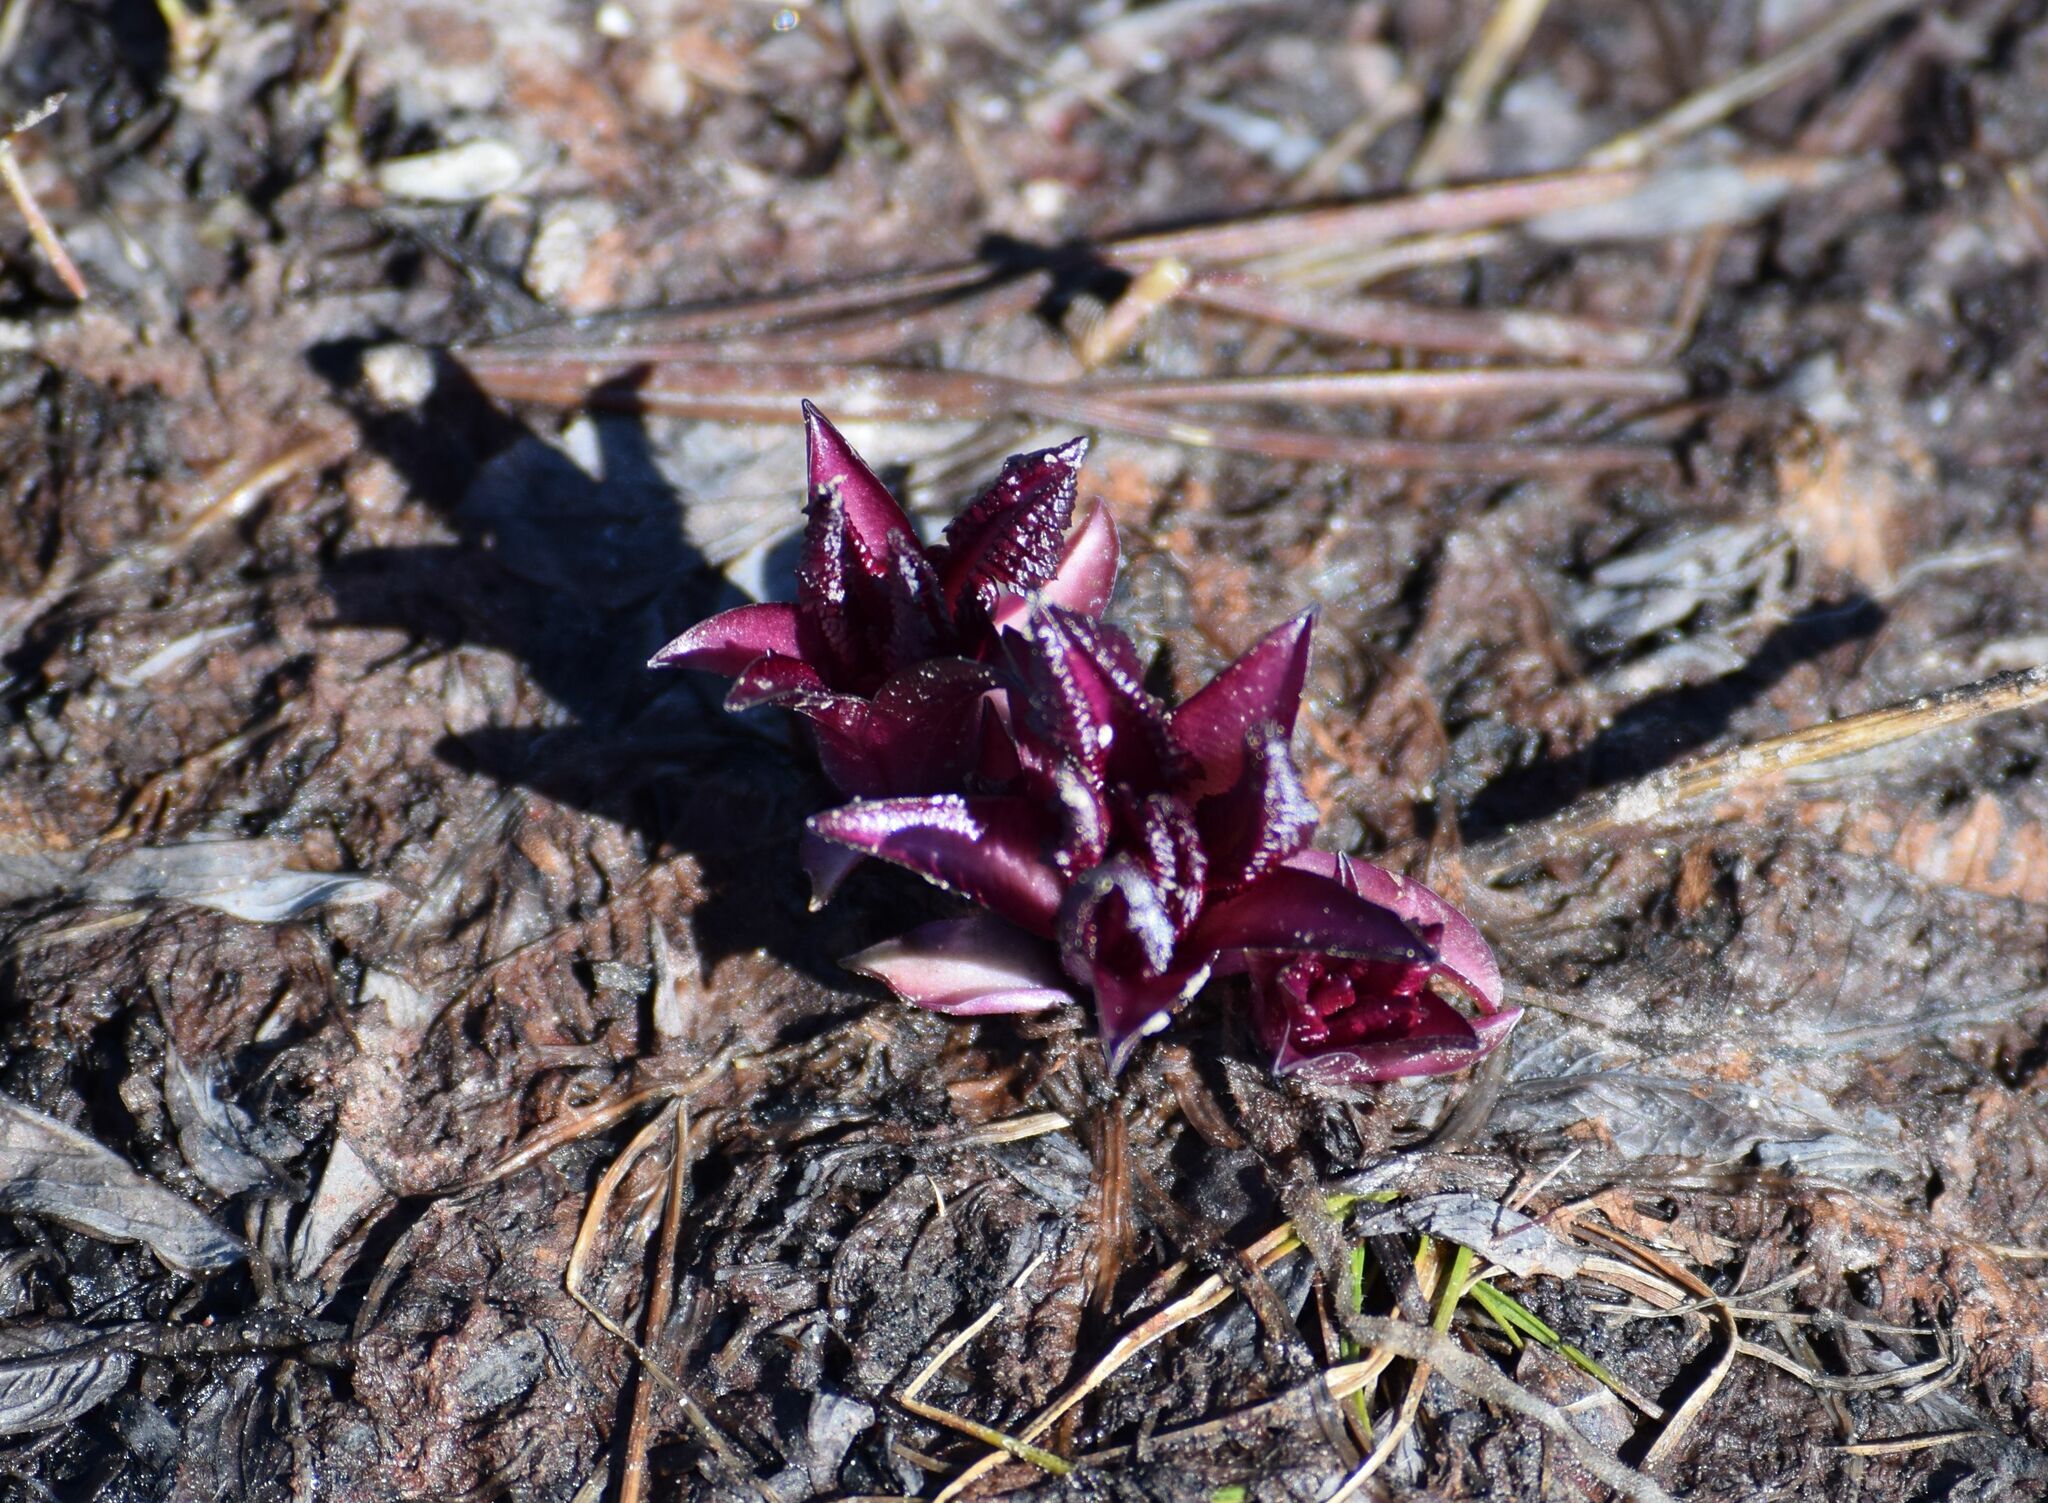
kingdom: Plantae
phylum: Tracheophyta
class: Magnoliopsida
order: Lamiales
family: Orobanchaceae
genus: Pedicularis
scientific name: Pedicularis groenlandica
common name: Elephant's-head
